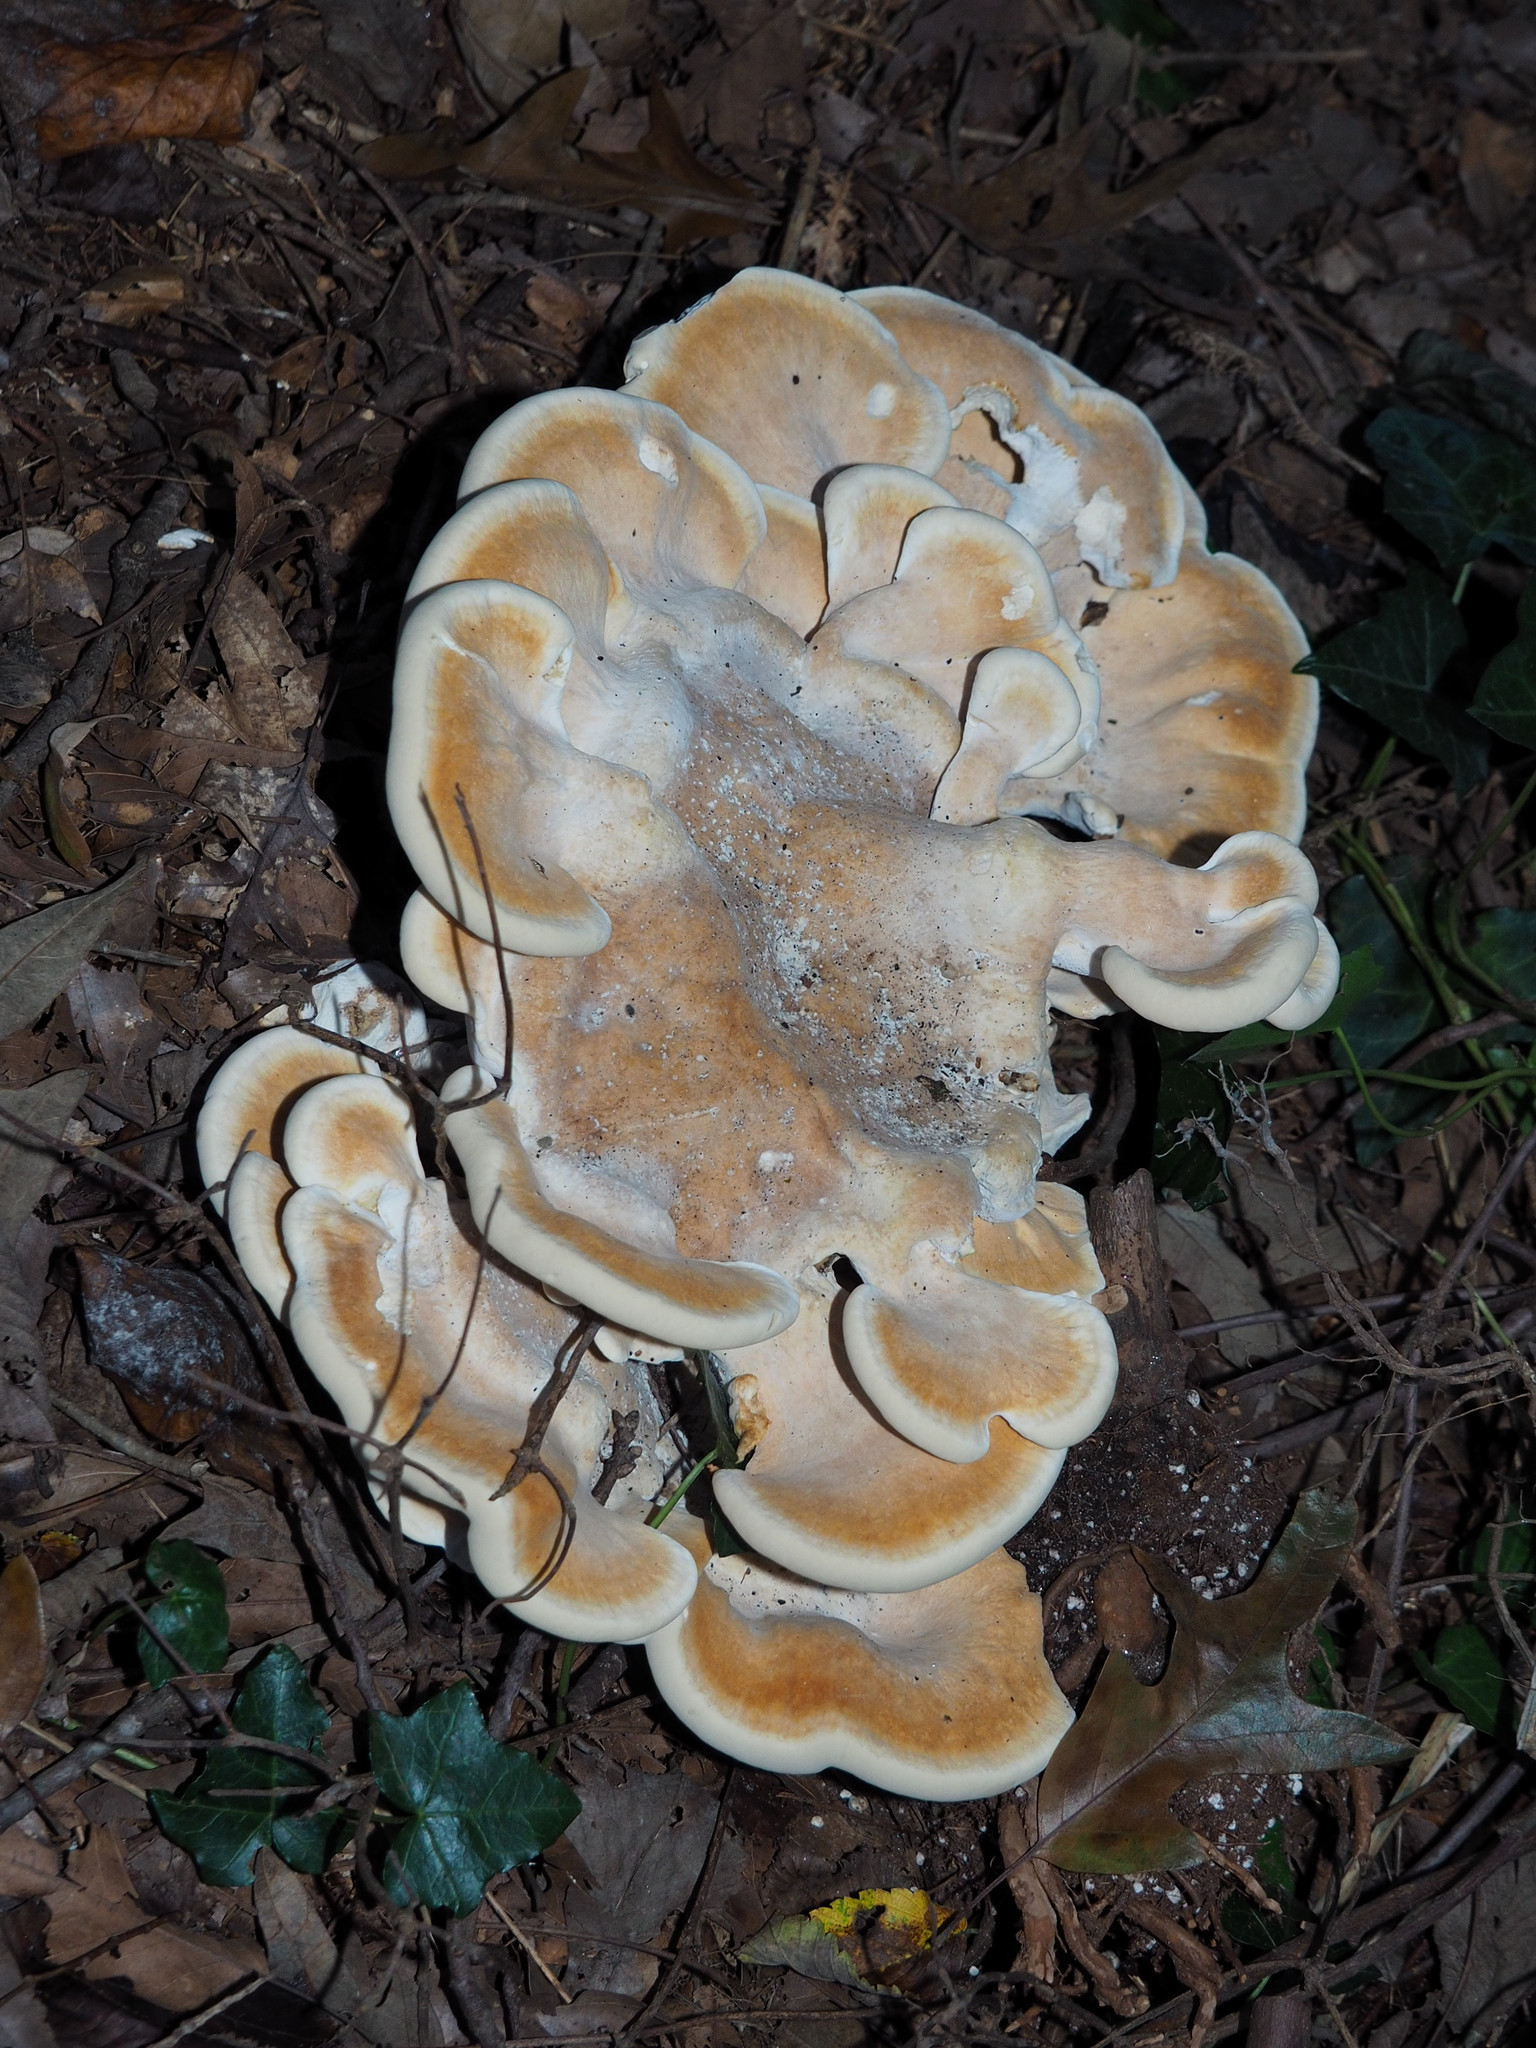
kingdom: Fungi
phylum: Basidiomycota
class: Agaricomycetes
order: Russulales
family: Bondarzewiaceae
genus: Bondarzewia
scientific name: Bondarzewia berkeleyi
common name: Berkeley's polypore
